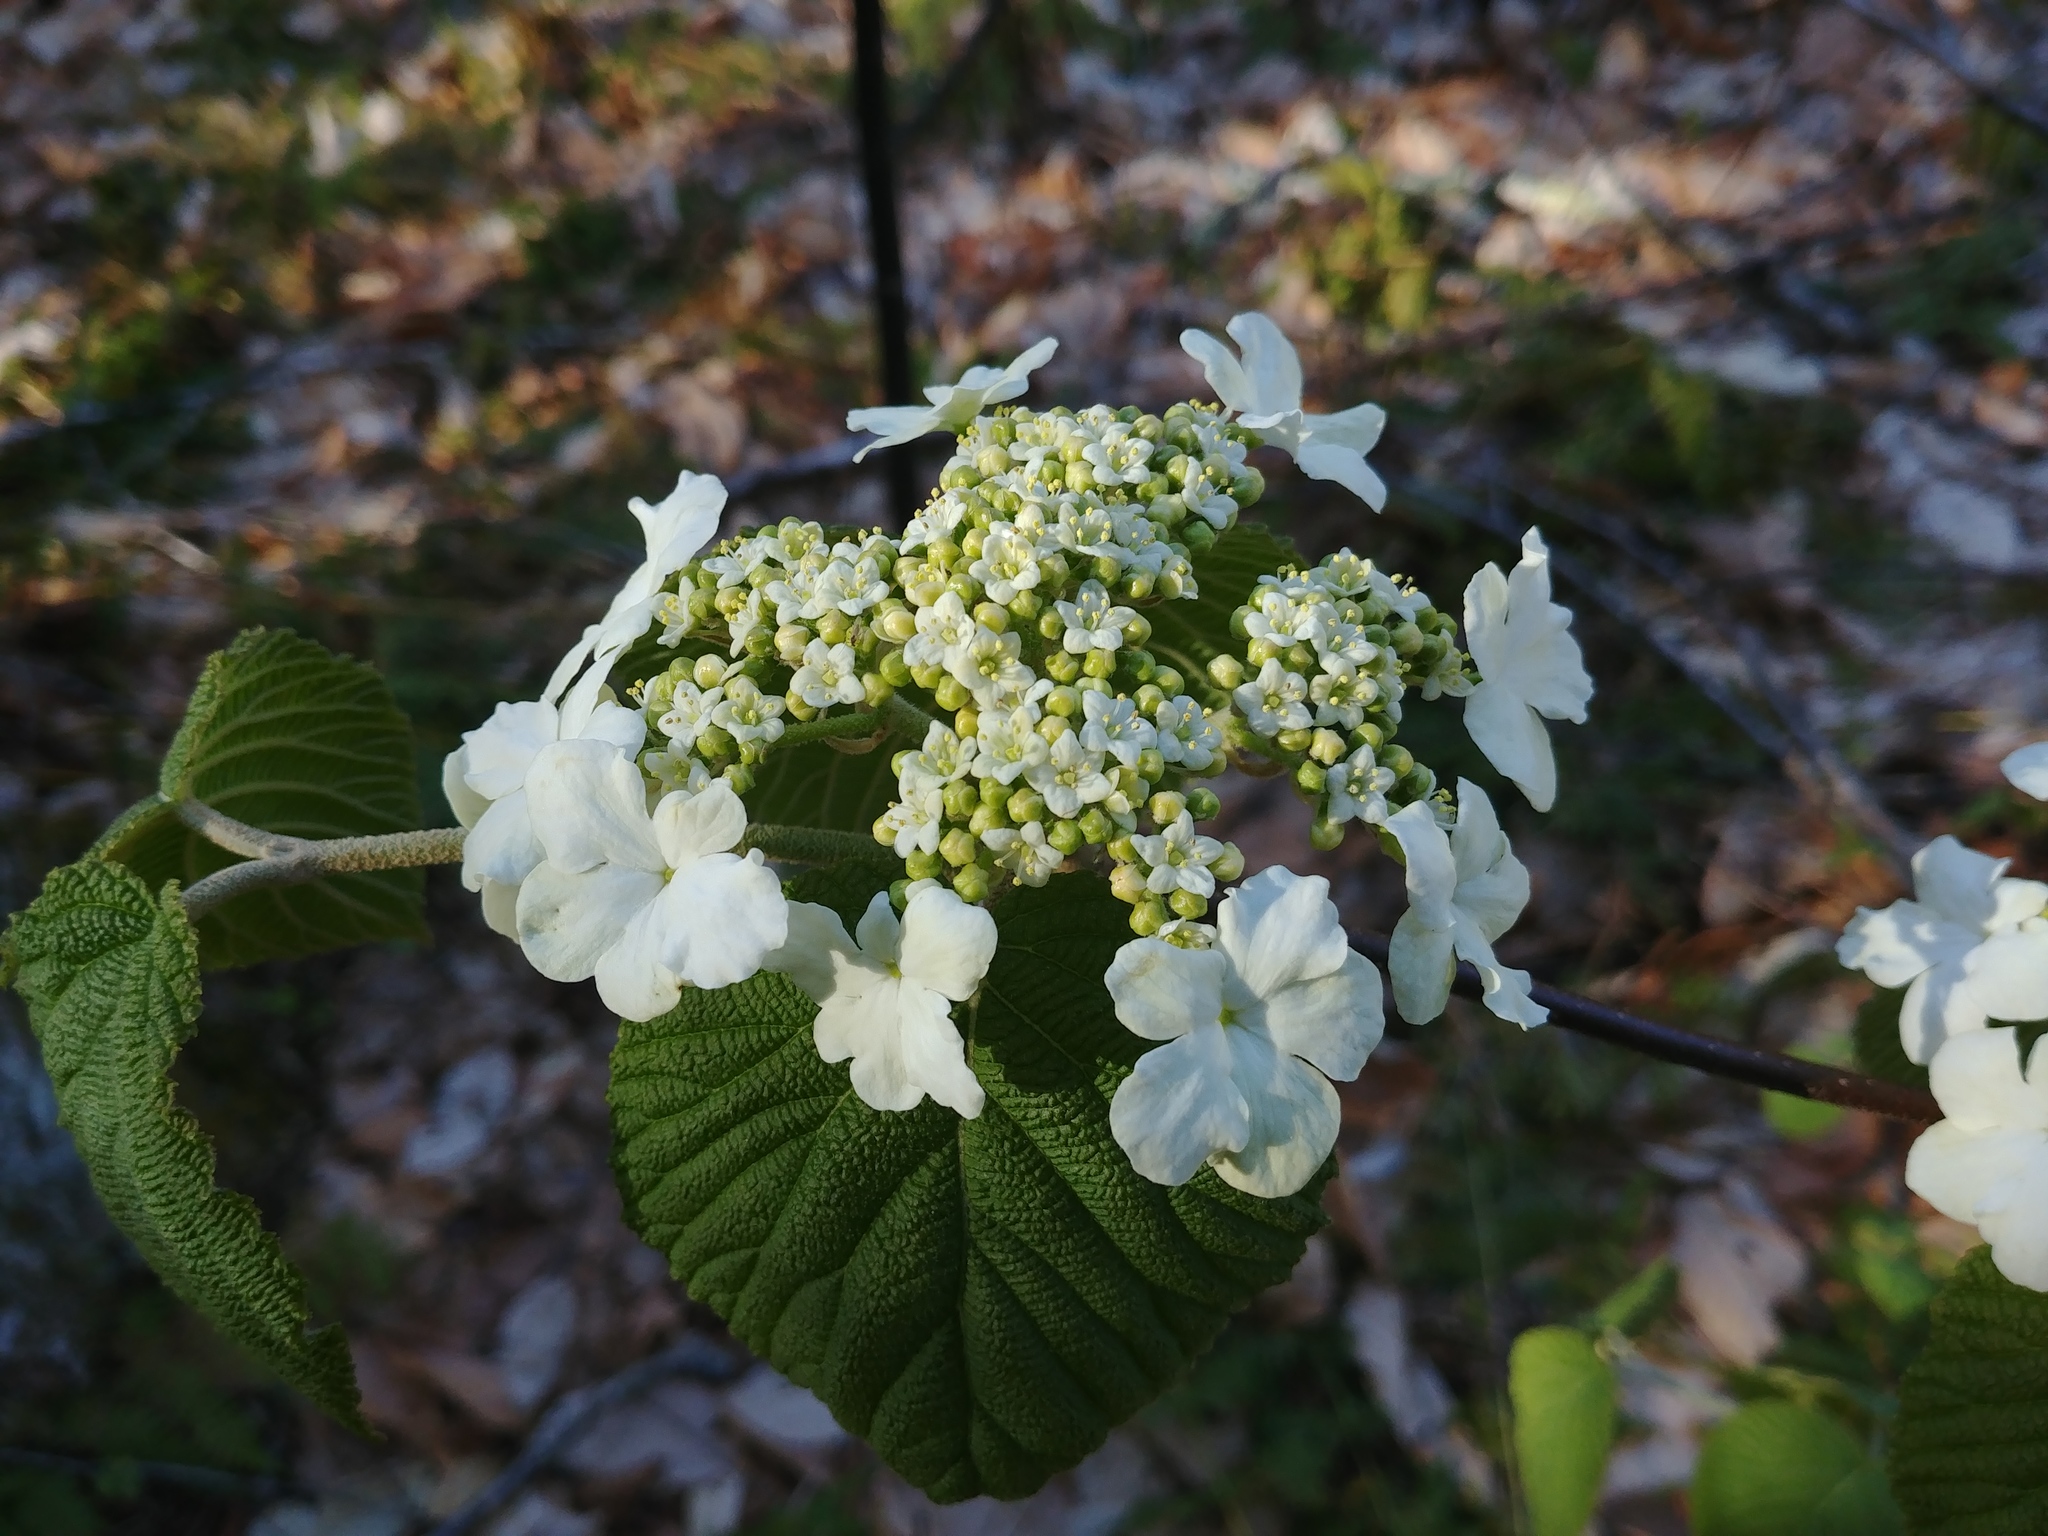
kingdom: Plantae
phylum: Tracheophyta
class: Magnoliopsida
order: Dipsacales
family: Viburnaceae
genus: Viburnum
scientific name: Viburnum lantanoides
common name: Hobblebush
